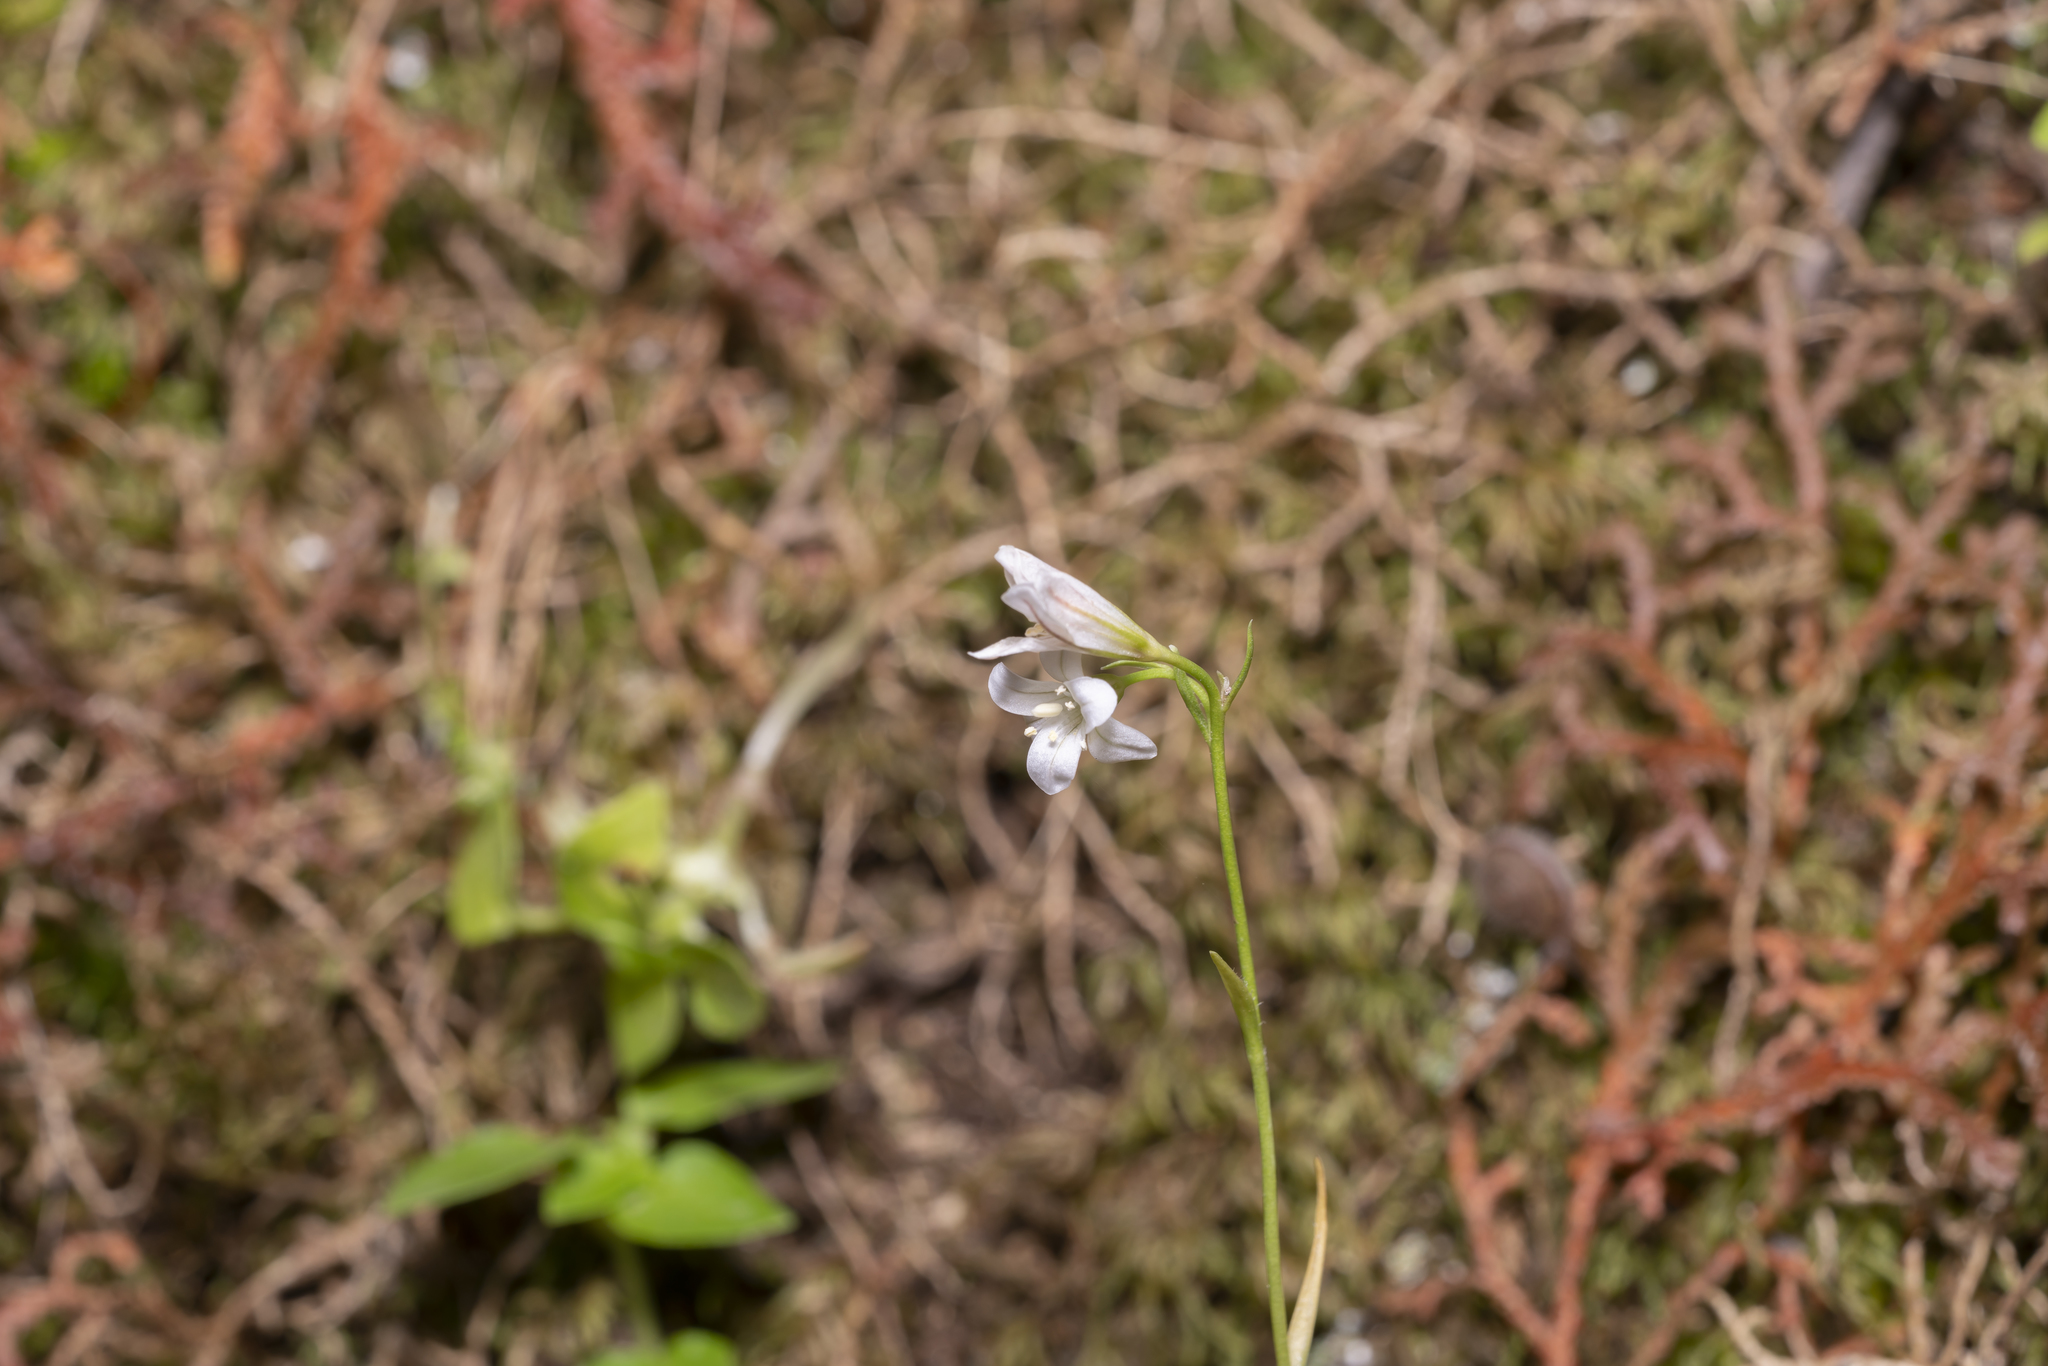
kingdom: Plantae
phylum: Tracheophyta
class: Liliopsida
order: Liliales
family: Liliaceae
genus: Gagea
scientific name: Gagea graeca
